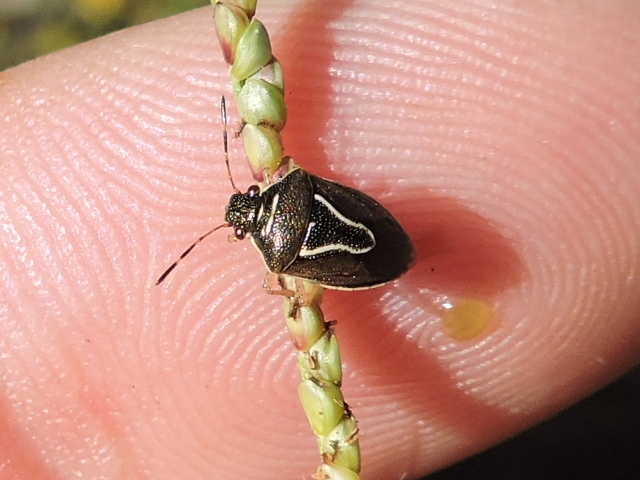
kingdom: Animalia
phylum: Arthropoda
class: Insecta
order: Hemiptera
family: Pentatomidae
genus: Mormidea
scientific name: Mormidea lugens
